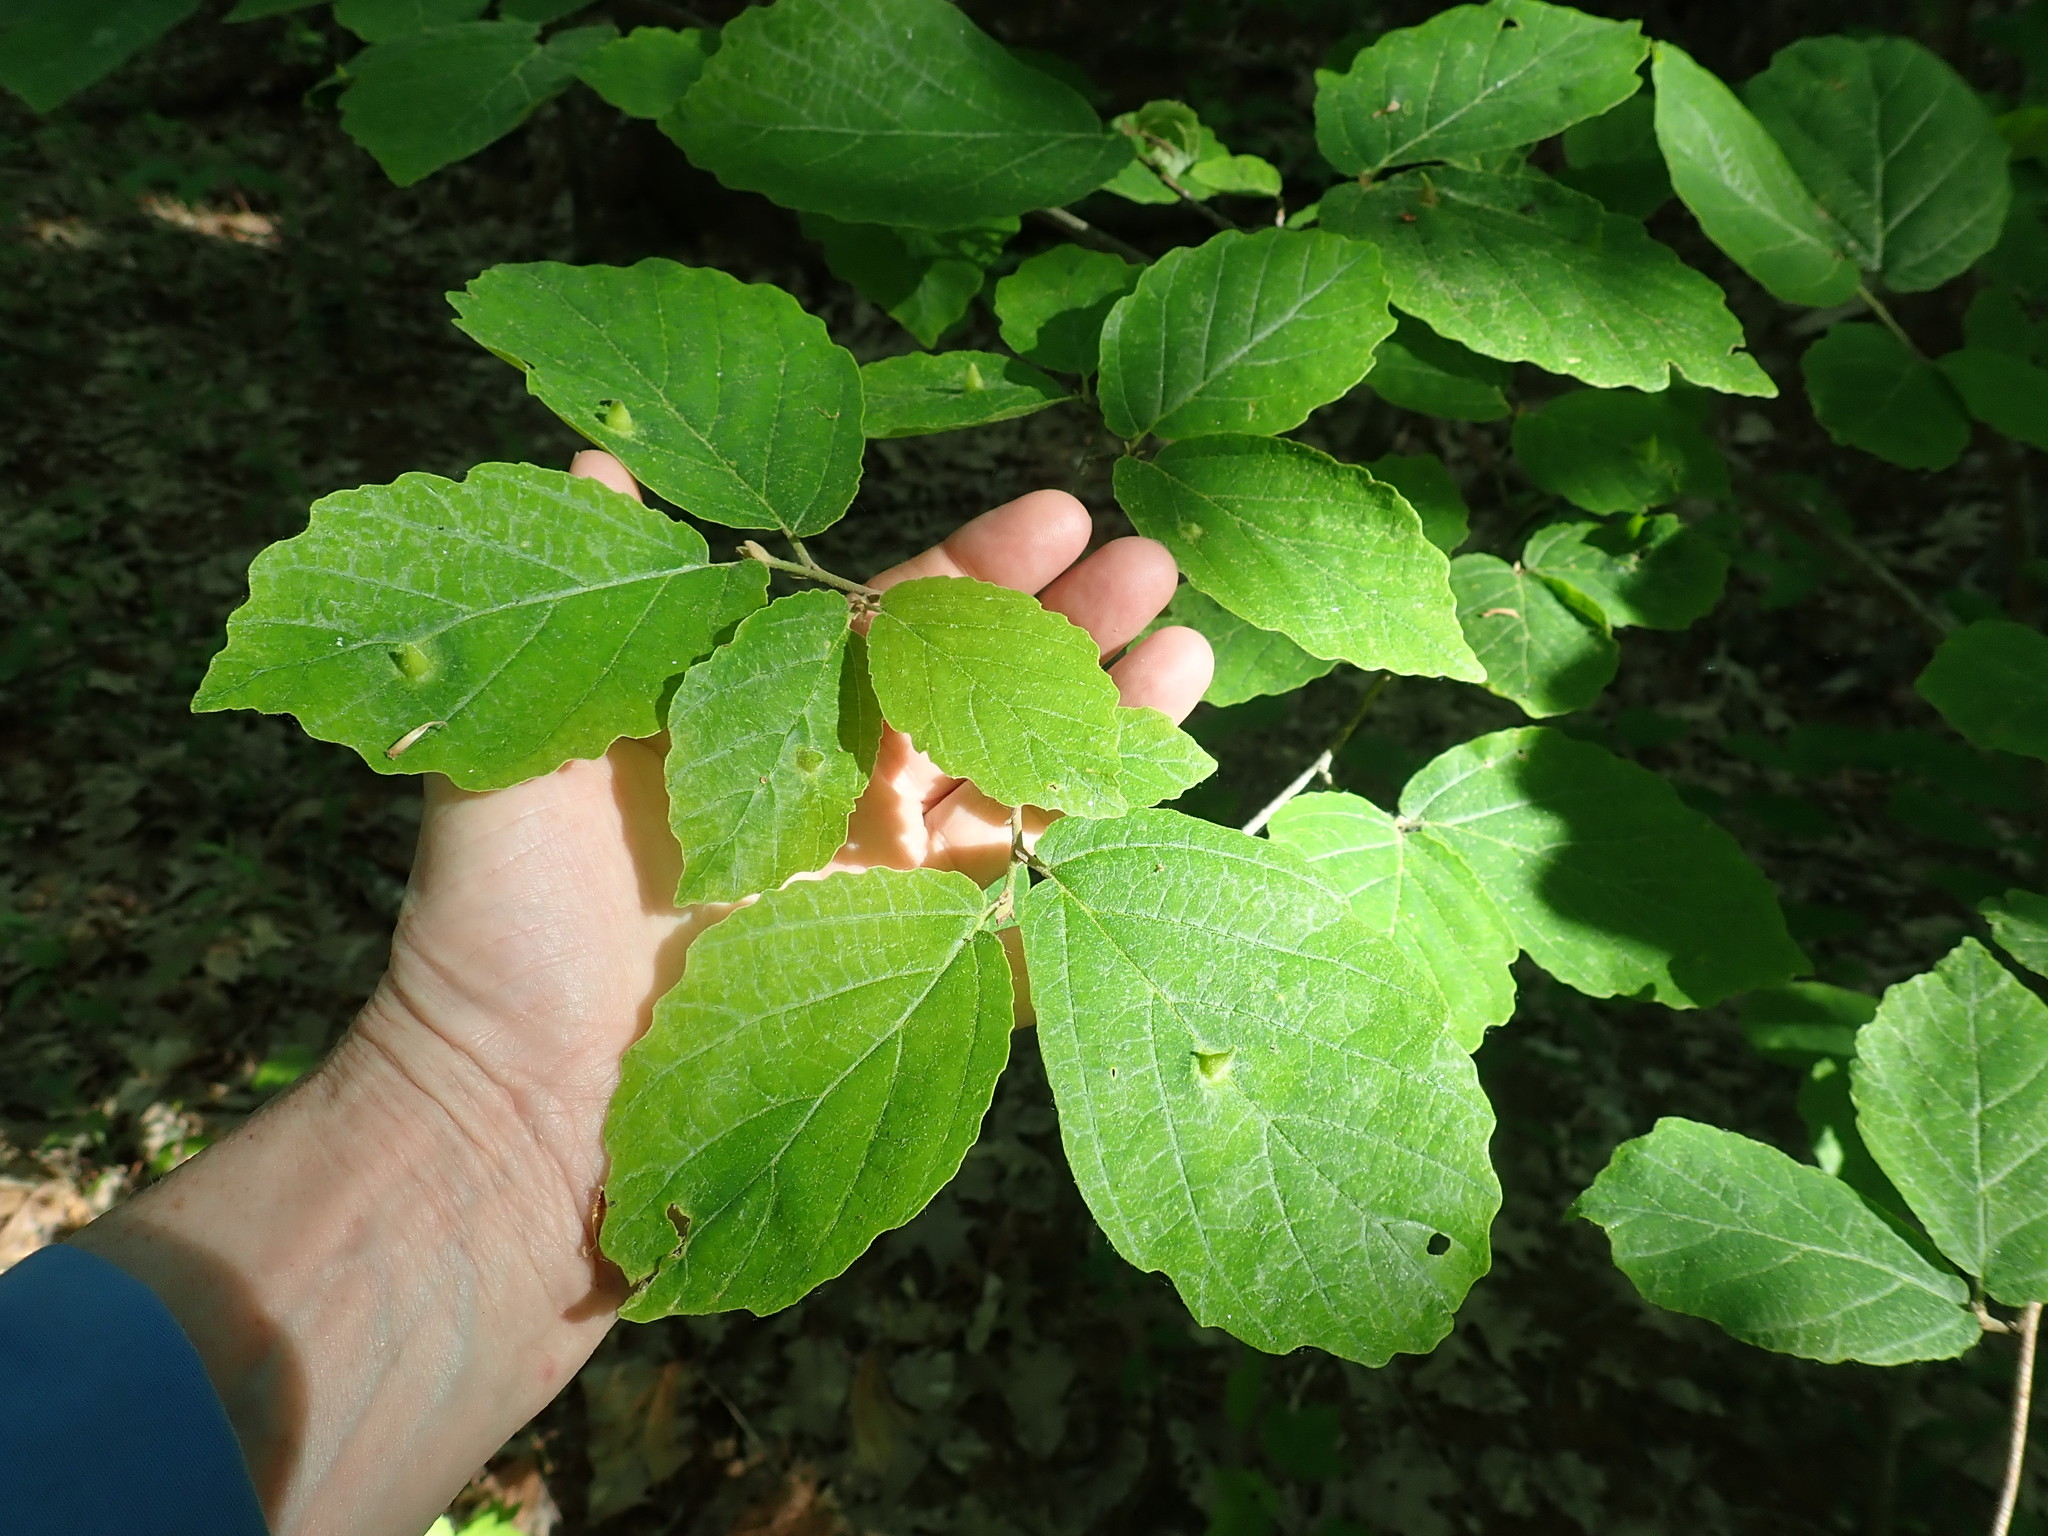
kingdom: Plantae
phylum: Tracheophyta
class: Magnoliopsida
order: Saxifragales
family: Hamamelidaceae
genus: Hamamelis
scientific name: Hamamelis virginiana
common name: Witch-hazel
